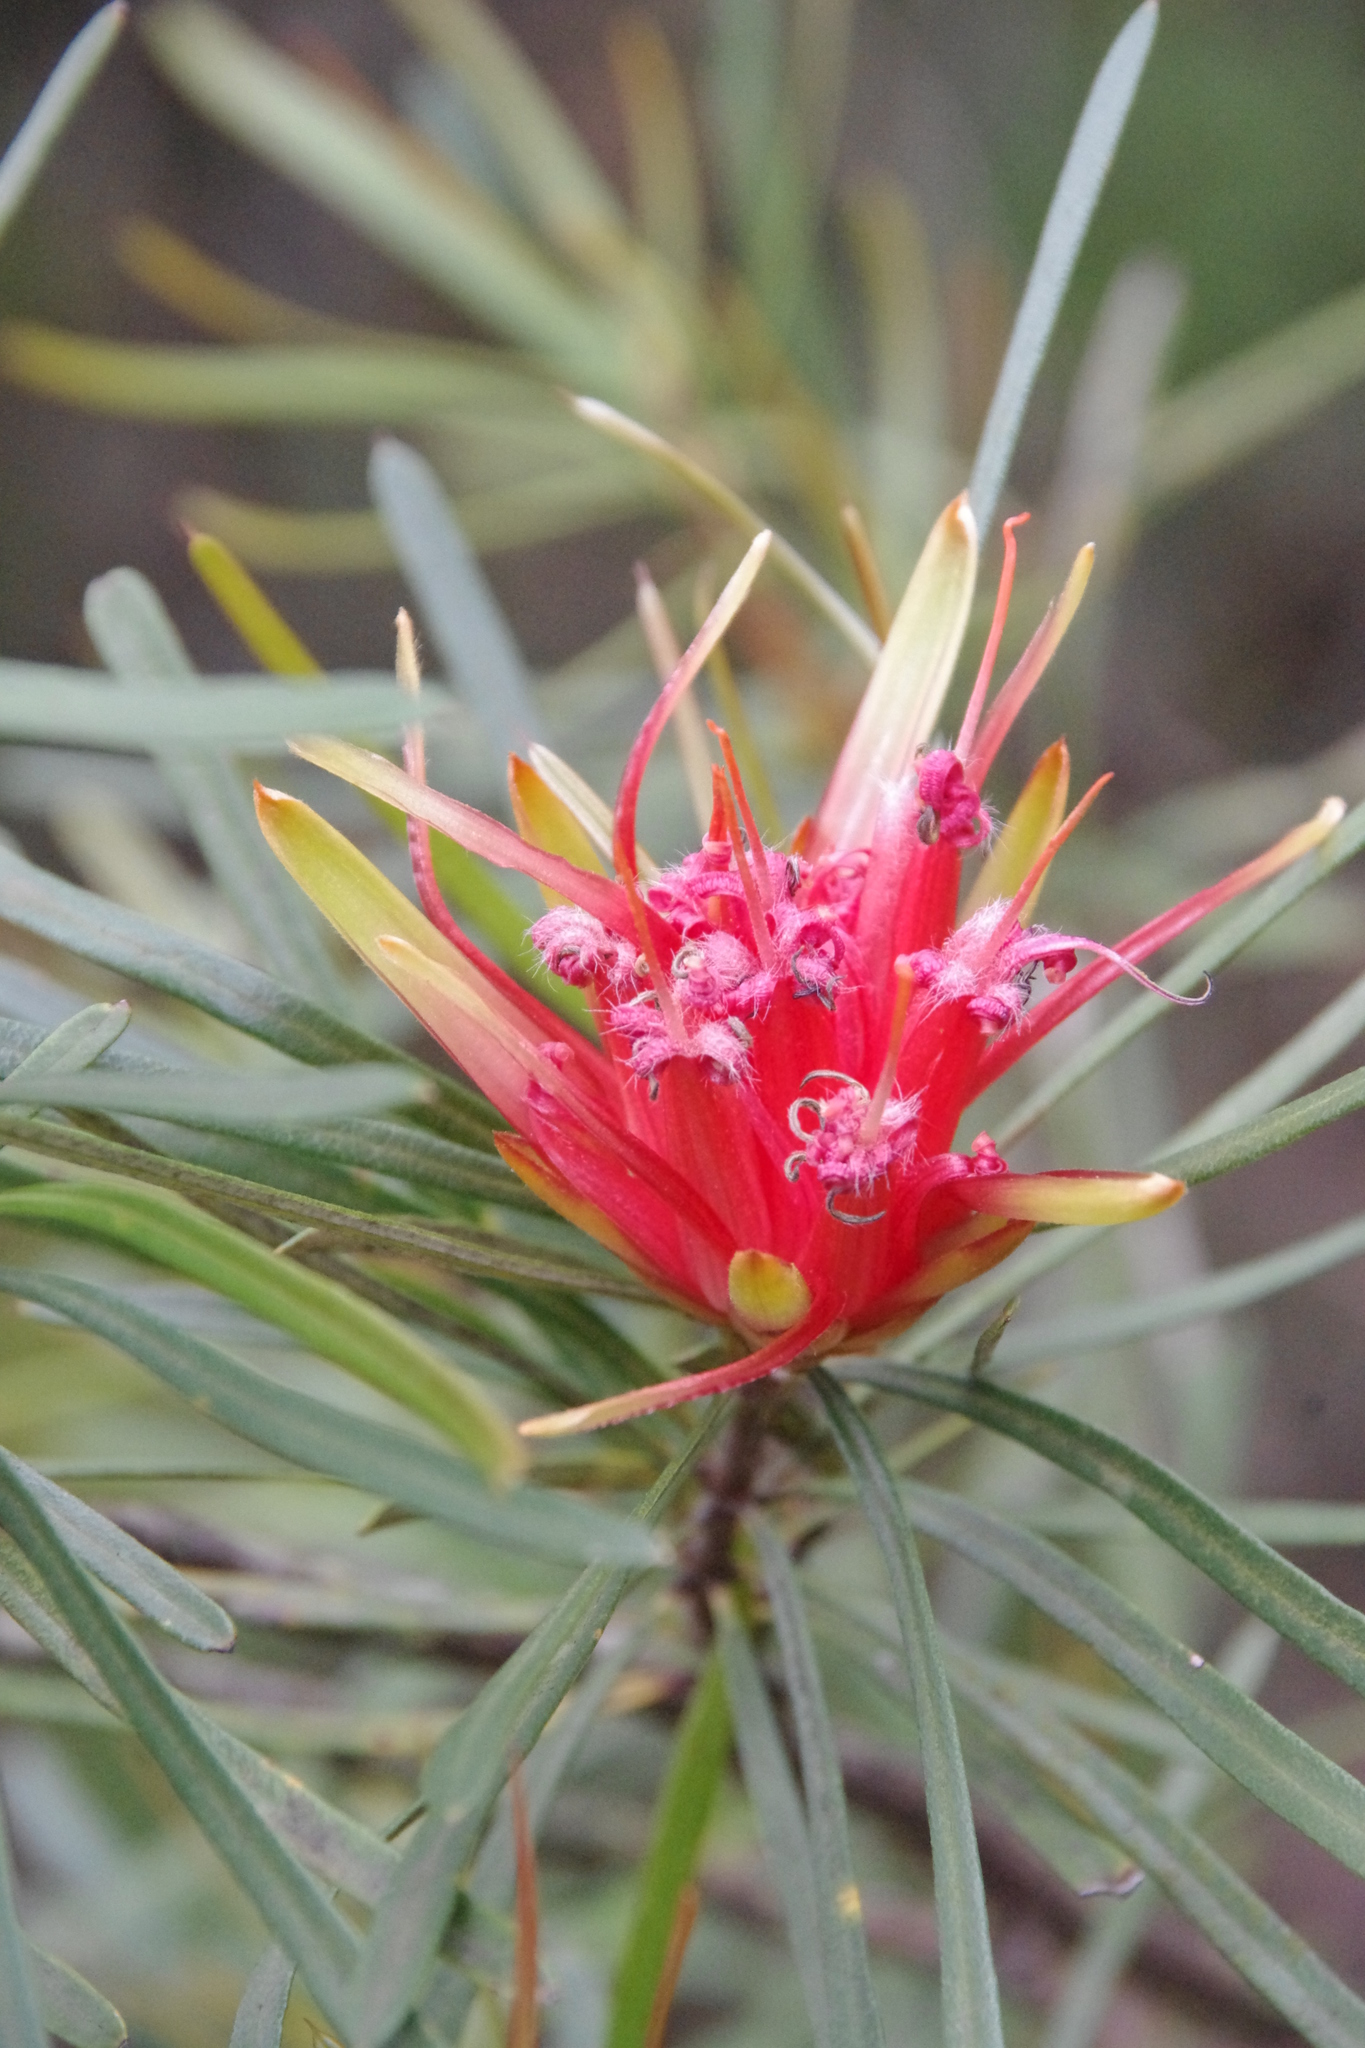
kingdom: Plantae
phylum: Tracheophyta
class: Magnoliopsida
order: Proteales
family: Proteaceae
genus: Lambertia
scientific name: Lambertia formosa
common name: Mountain-devil
